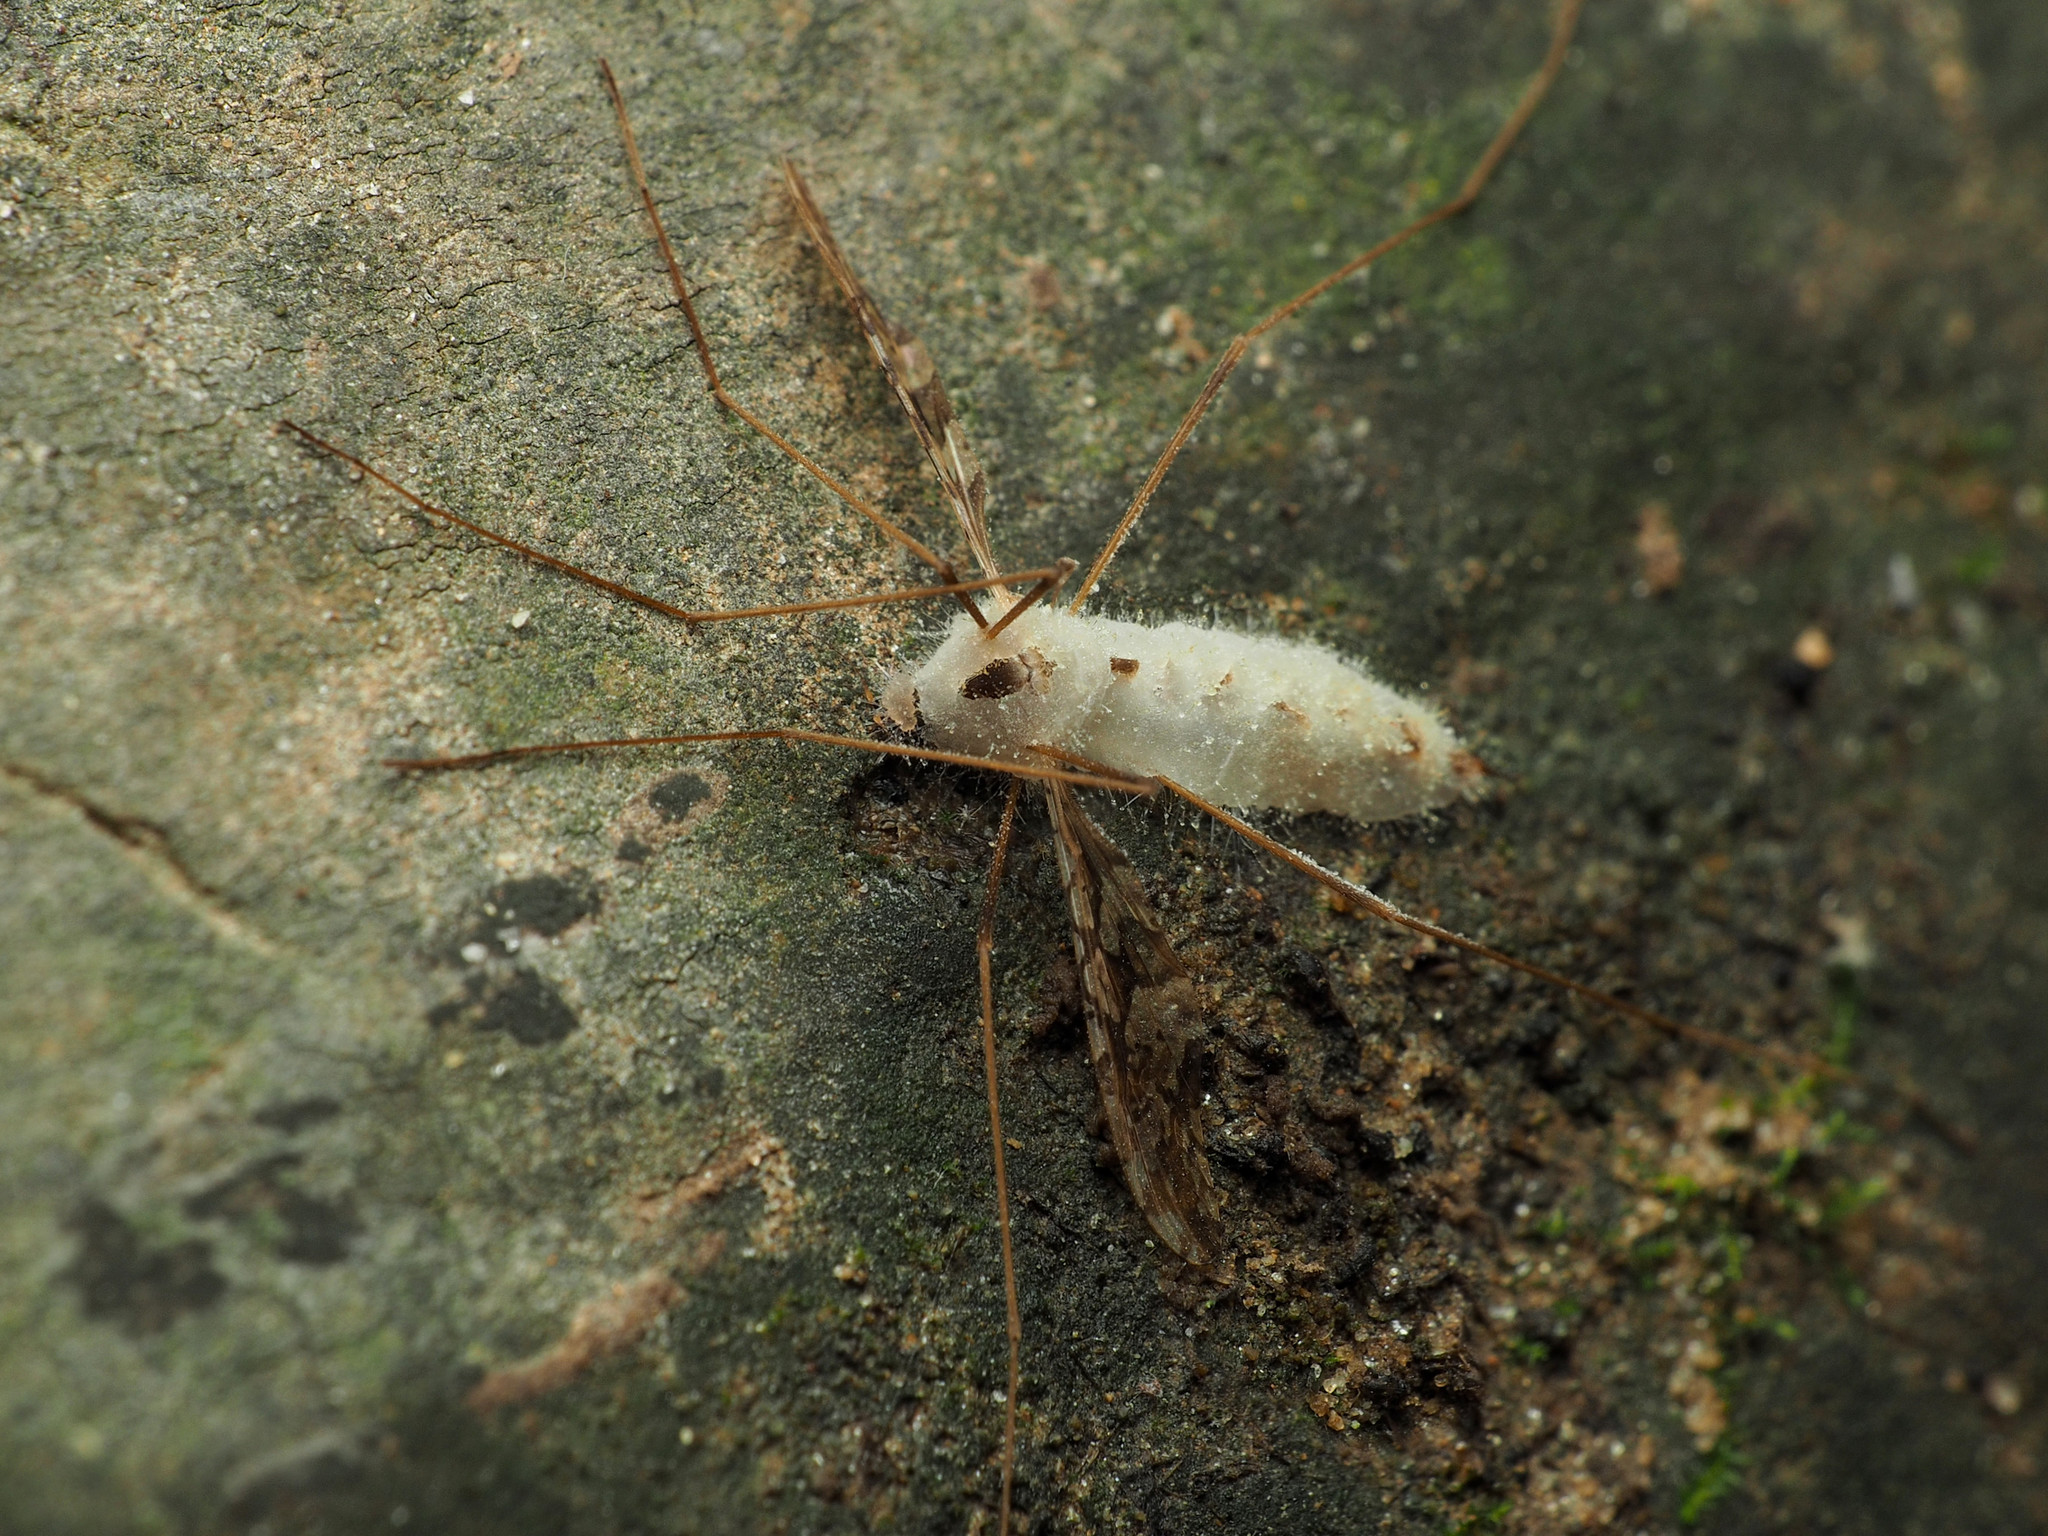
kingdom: Animalia
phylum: Arthropoda
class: Insecta
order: Diptera
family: Limoniidae
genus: Epiphragma
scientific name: Epiphragma solatrix
